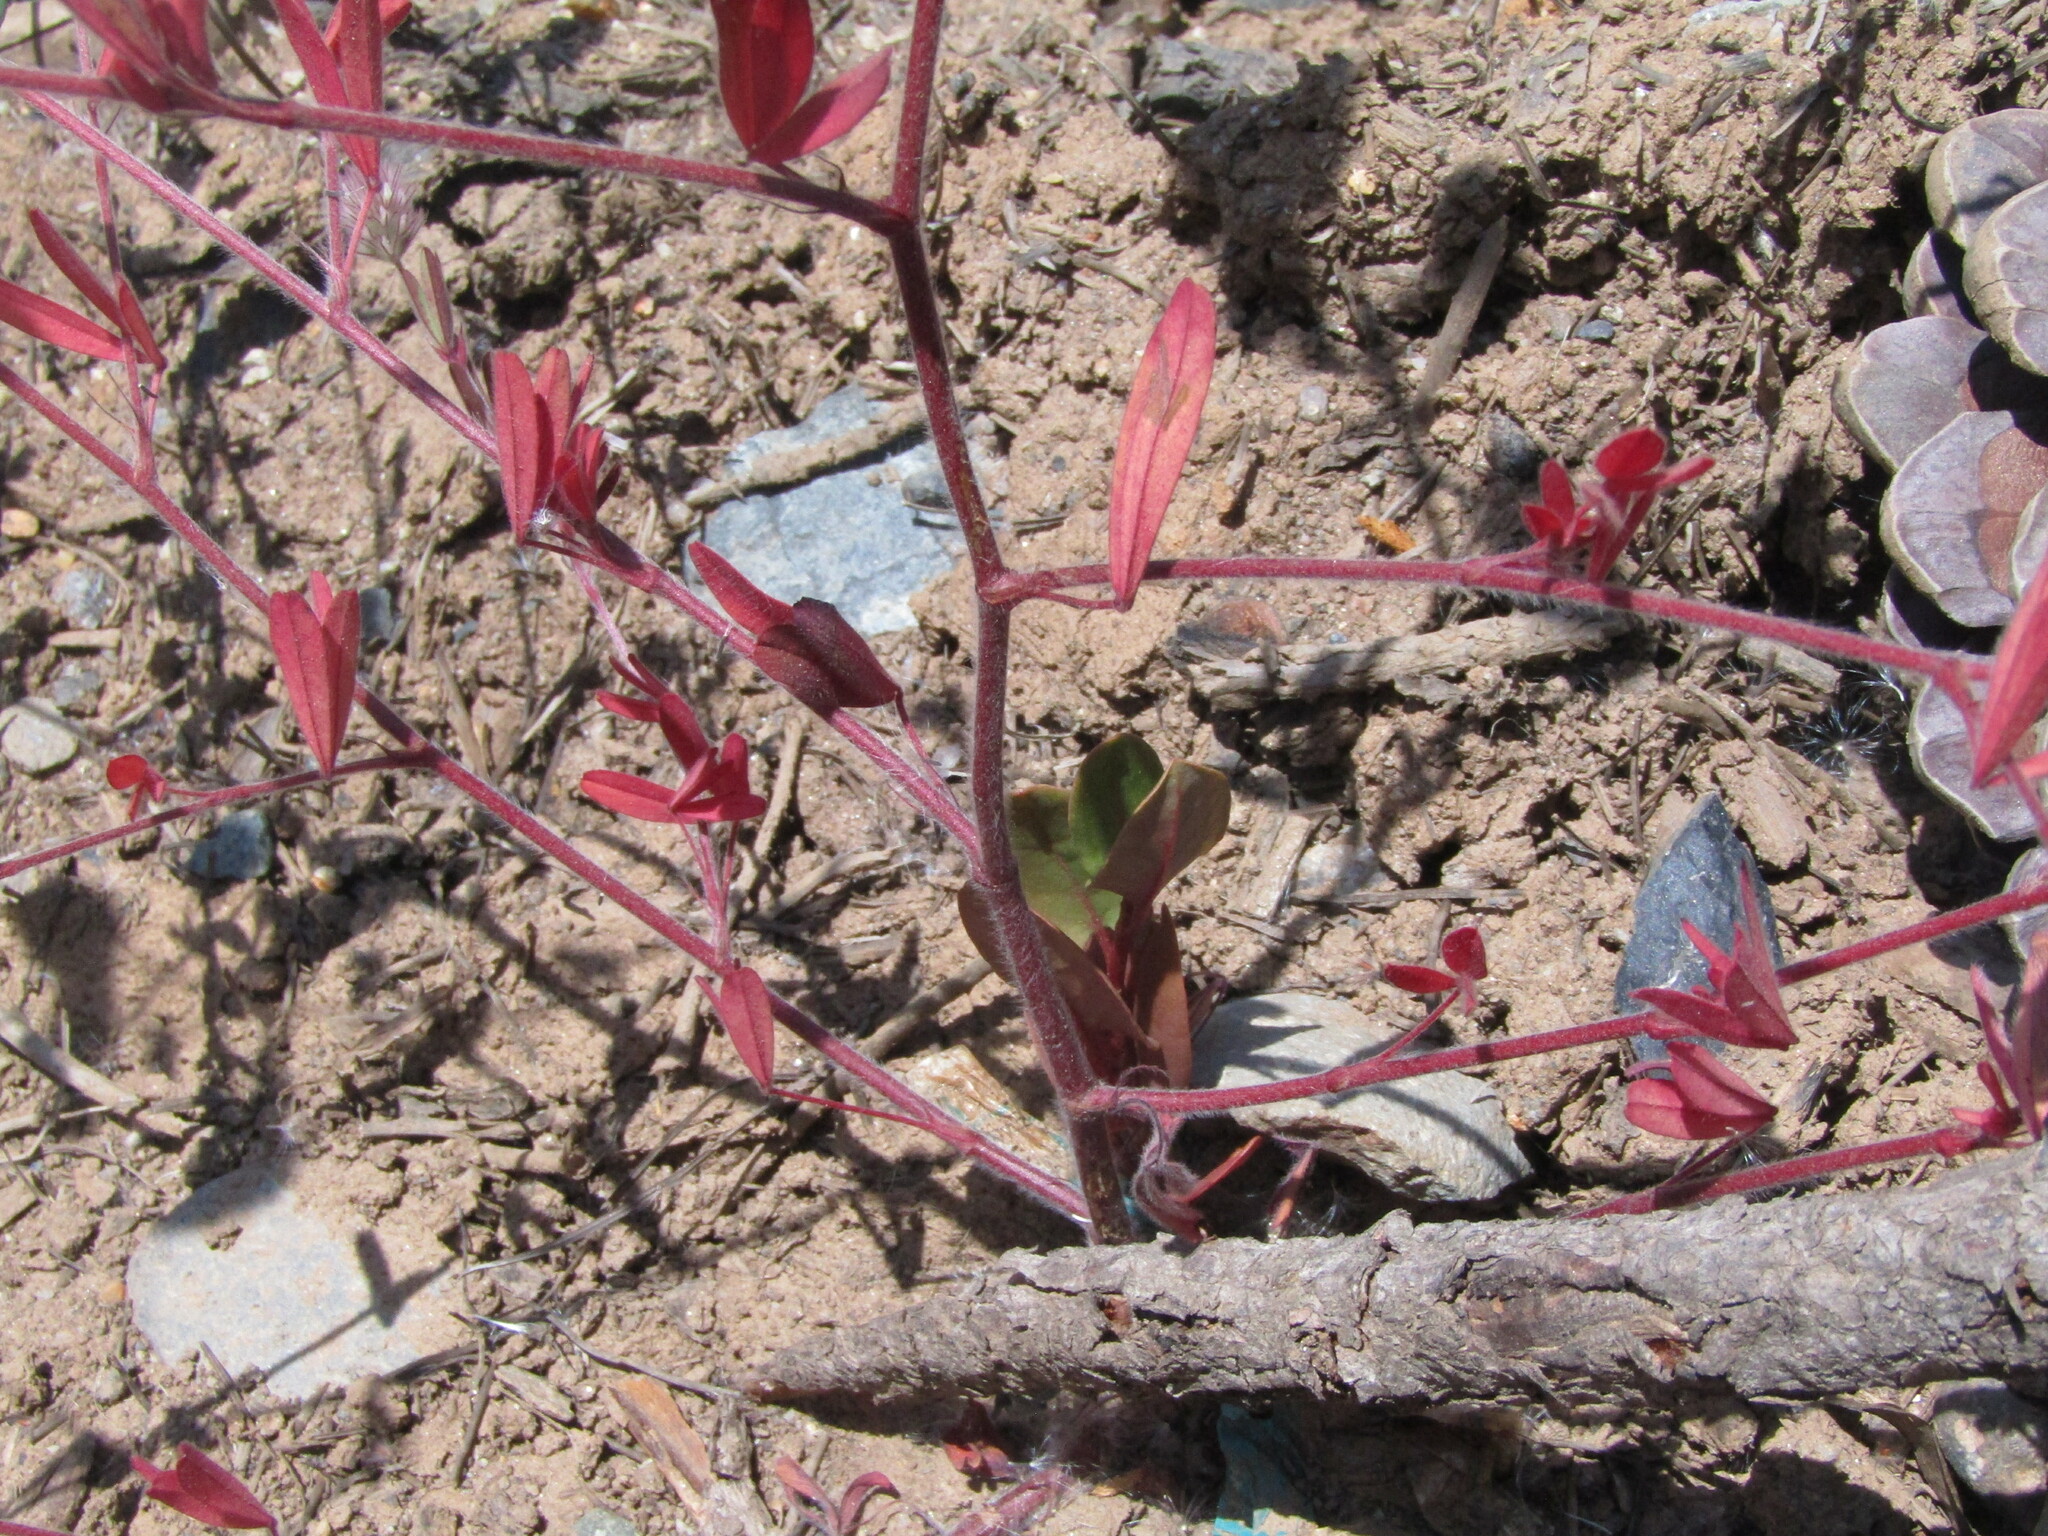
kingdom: Plantae
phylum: Tracheophyta
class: Magnoliopsida
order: Fabales
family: Fabaceae
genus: Trifolium
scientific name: Trifolium arvense
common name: Hare's-foot clover
